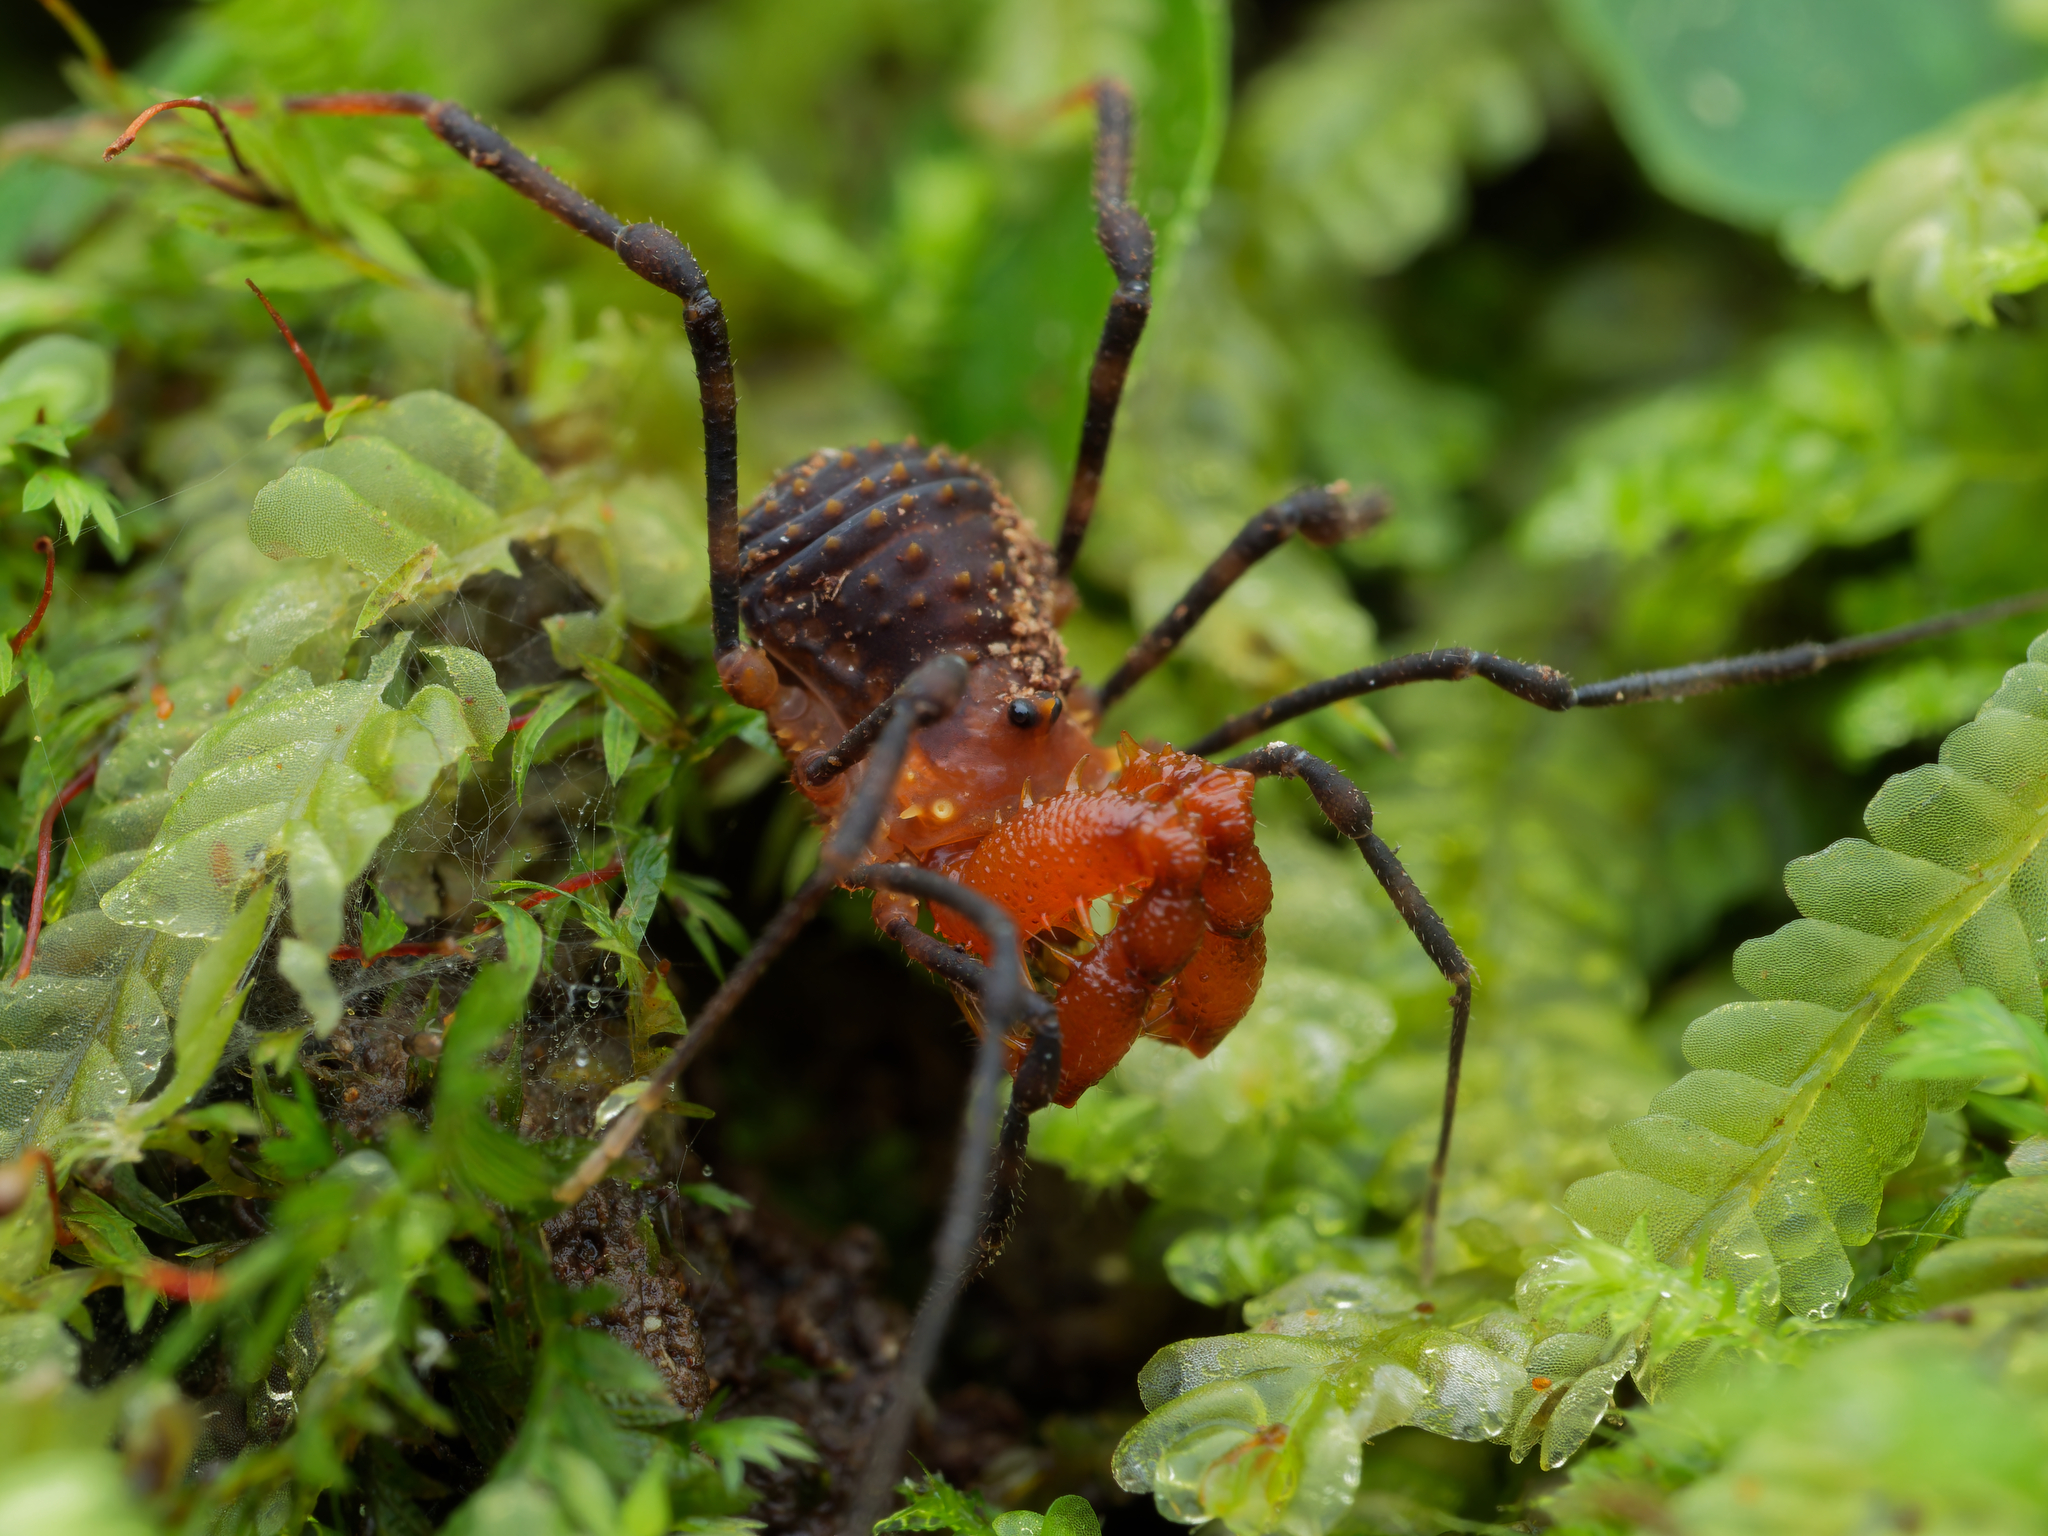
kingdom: Animalia
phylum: Arthropoda
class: Arachnida
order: Opiliones
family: Triaenonychidae
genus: Sorensenella
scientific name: Sorensenella prehensor
